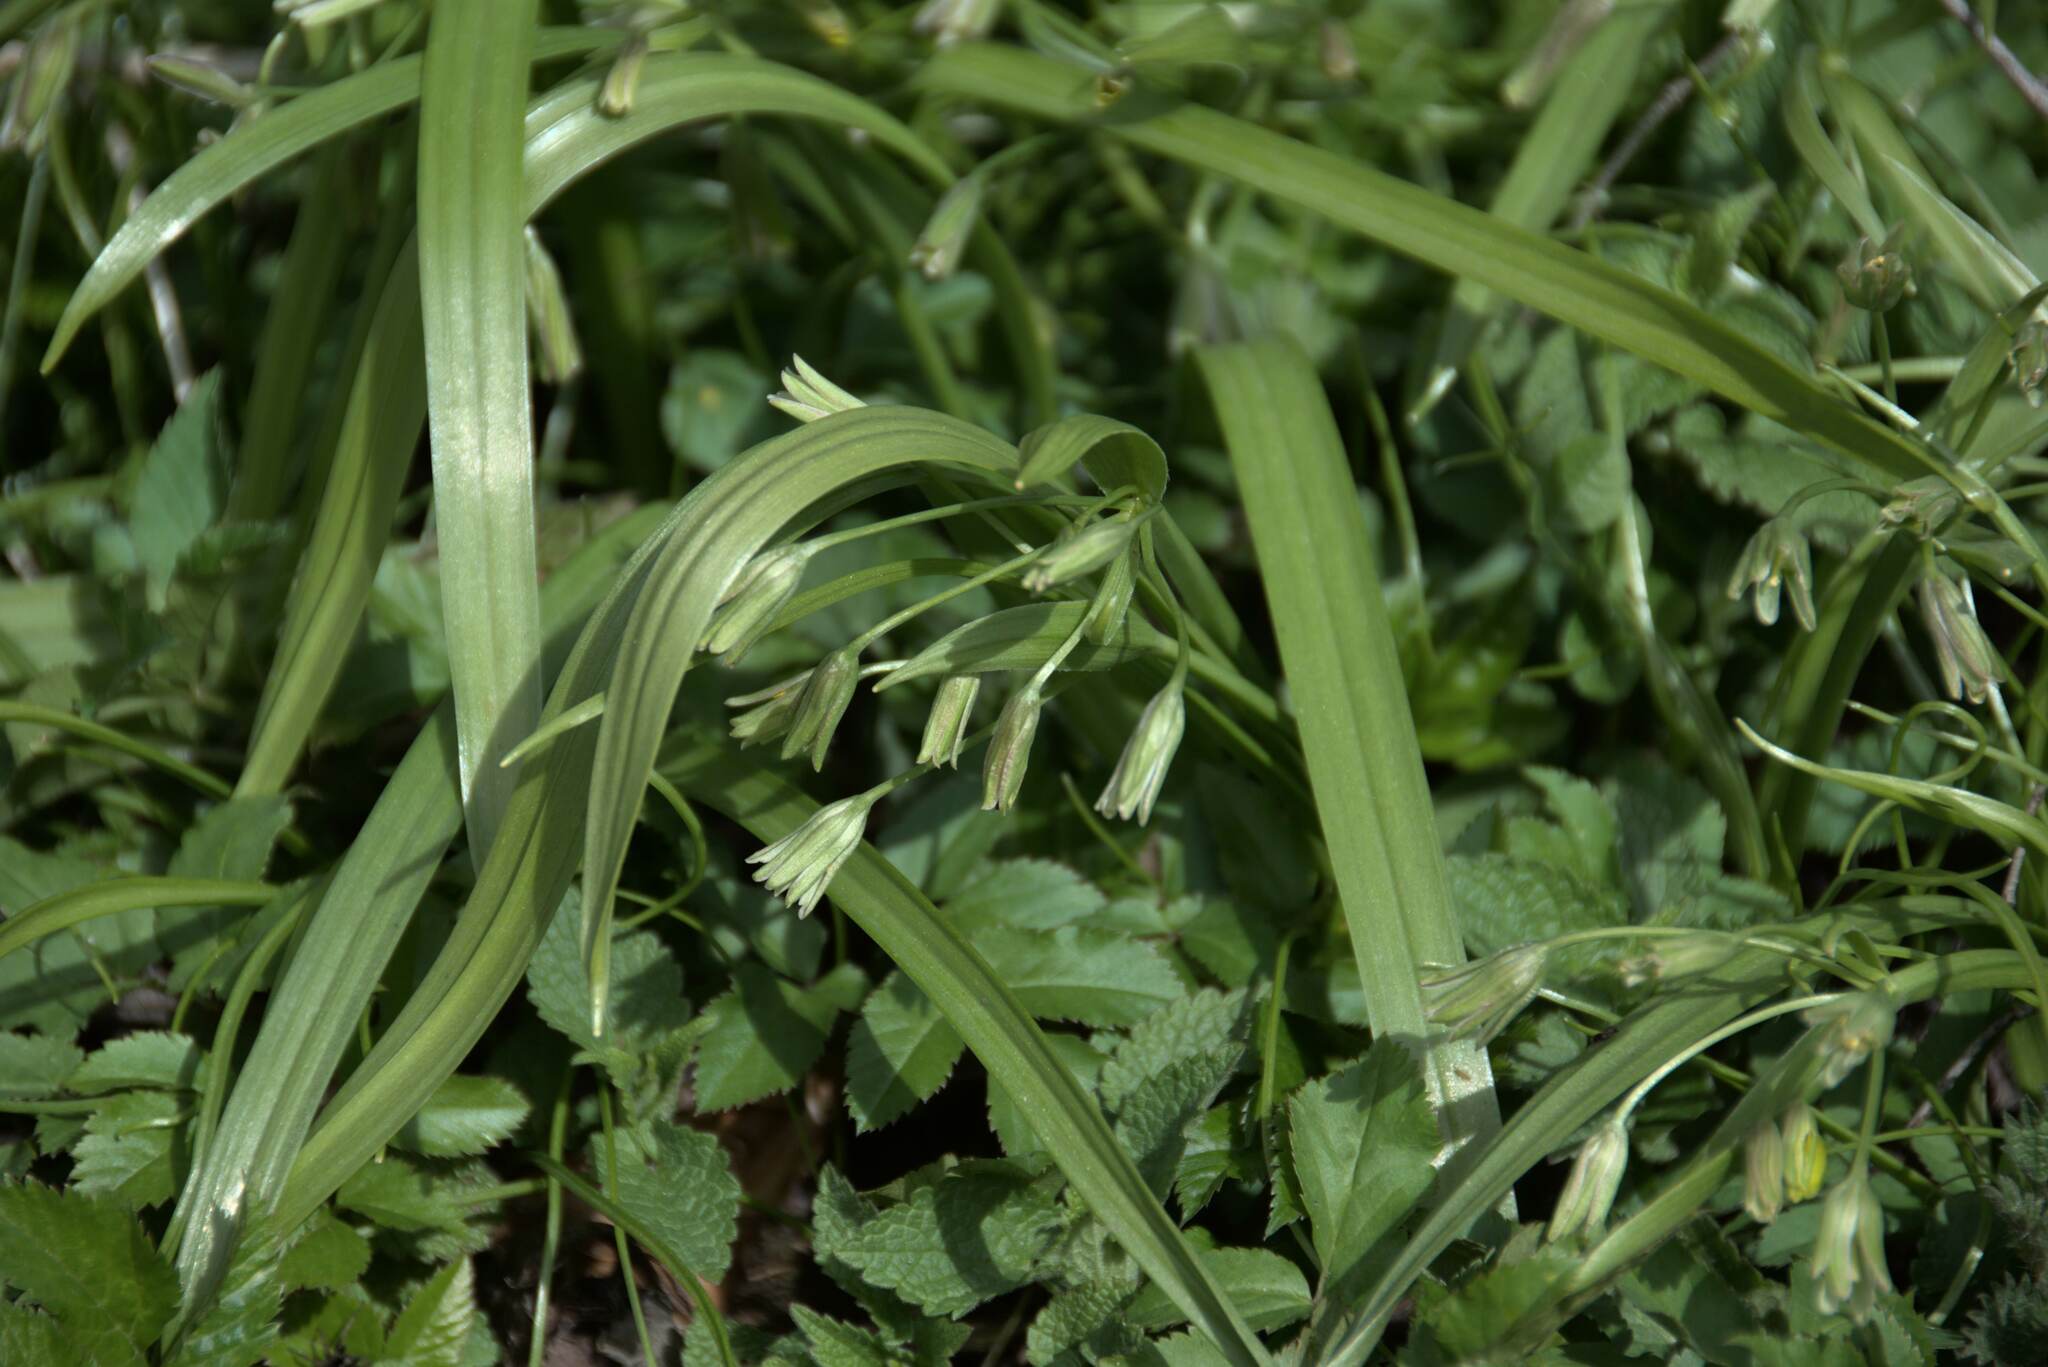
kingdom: Plantae
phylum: Tracheophyta
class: Liliopsida
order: Liliales
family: Liliaceae
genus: Gagea
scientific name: Gagea lutea
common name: Yellow star-of-bethlehem
